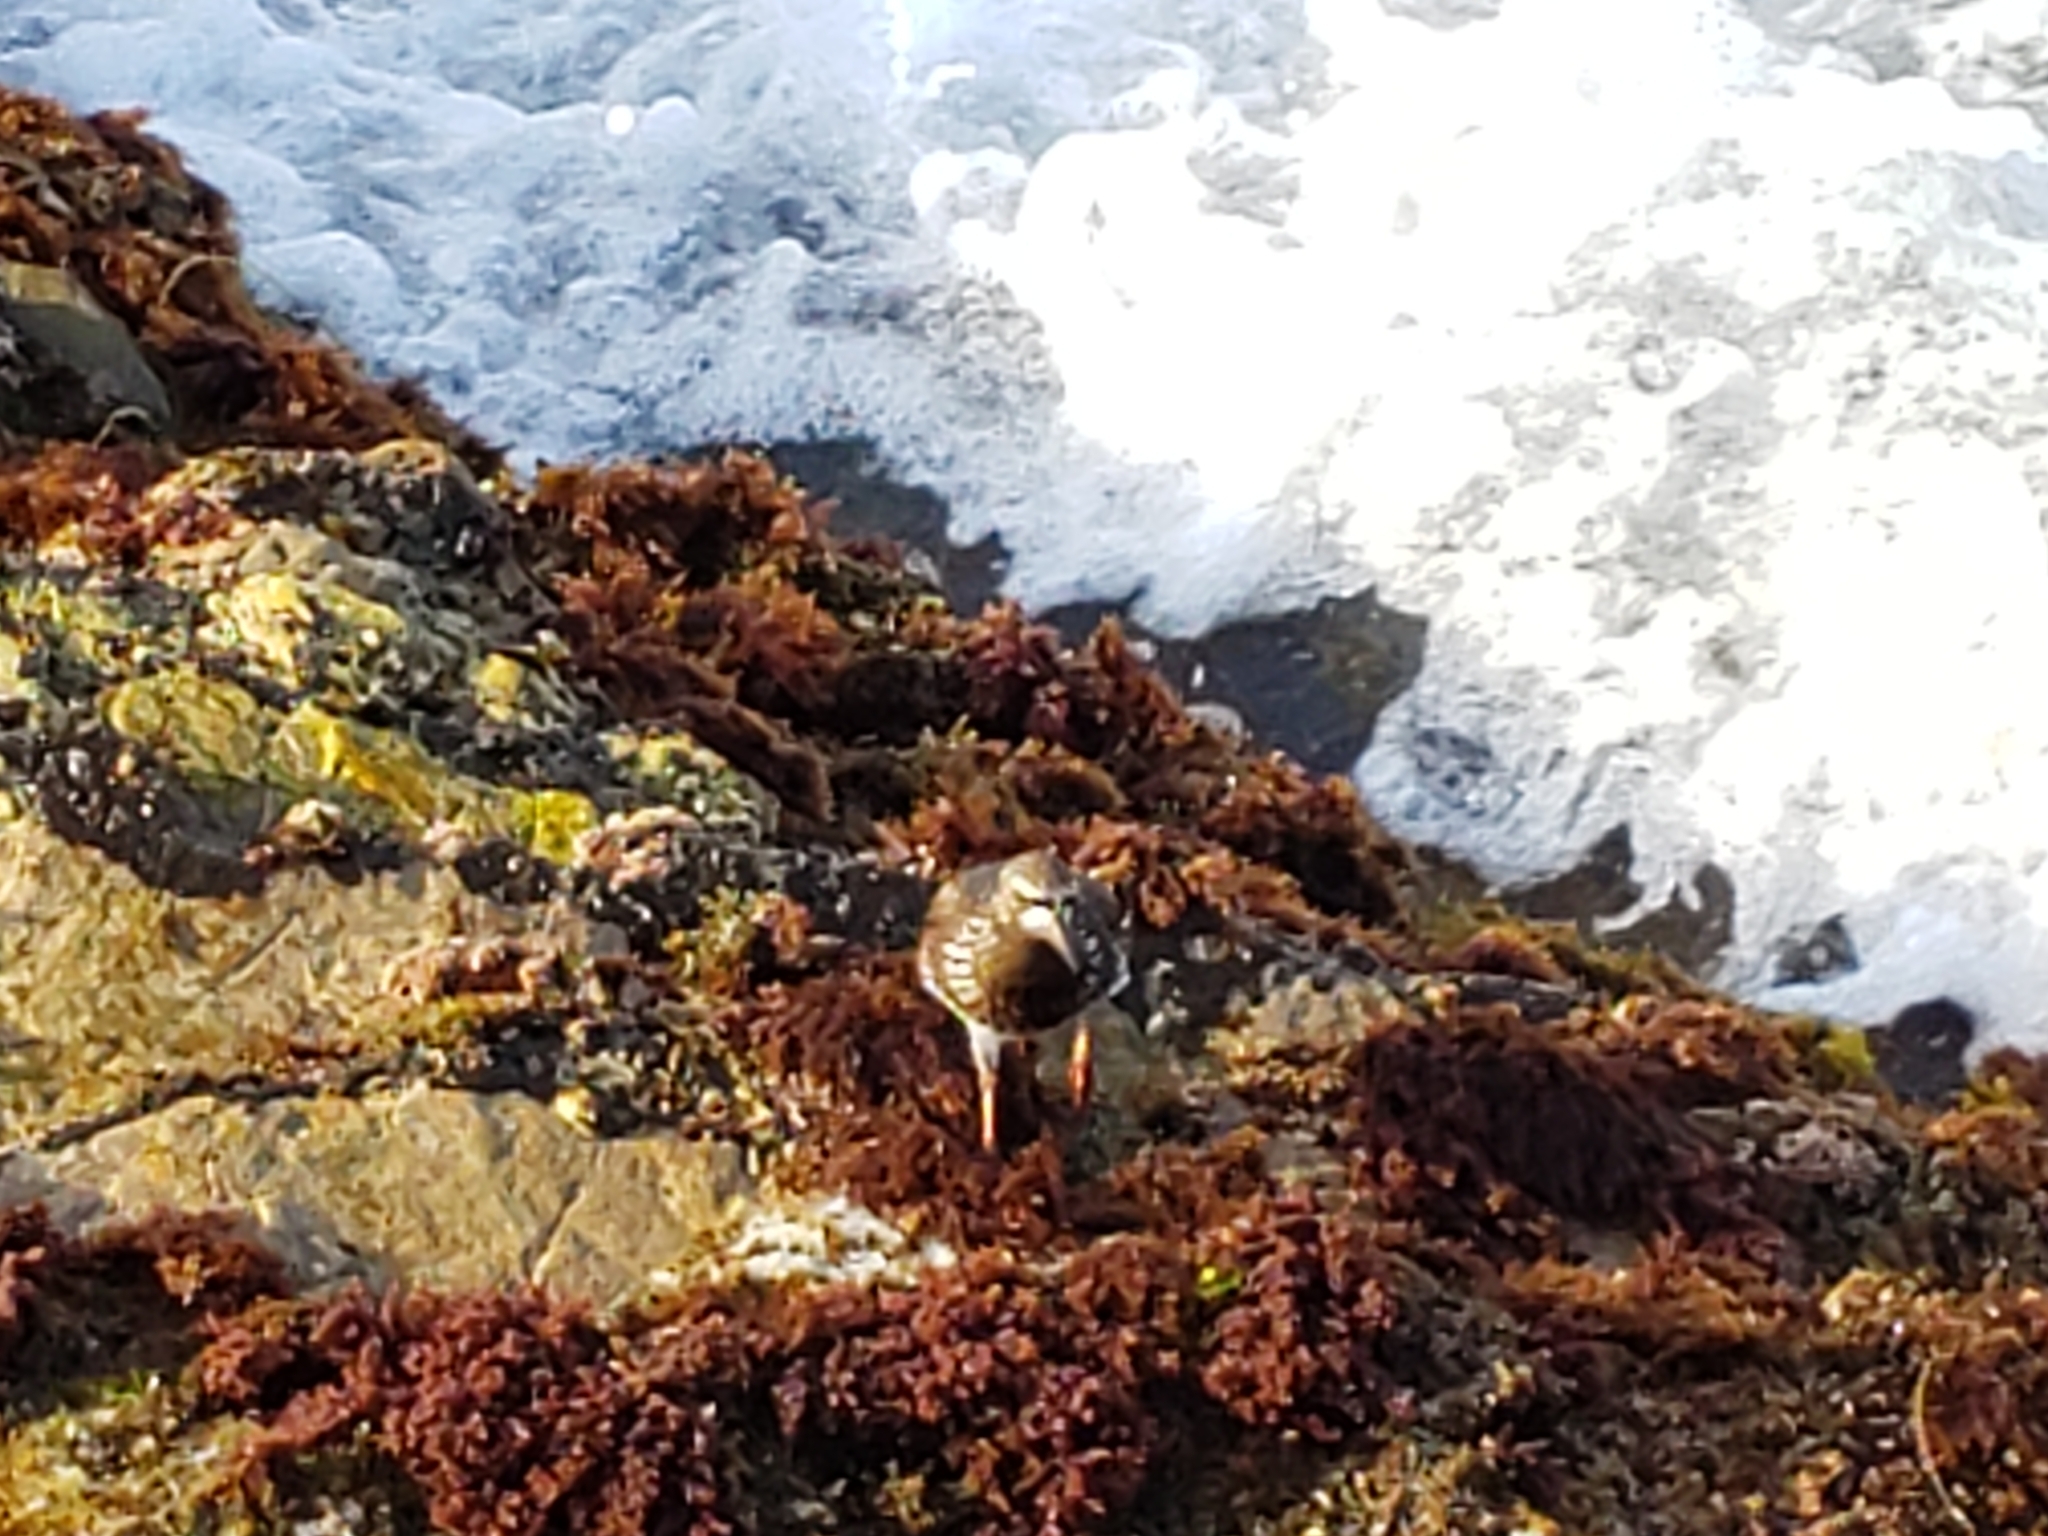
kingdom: Animalia
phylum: Chordata
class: Aves
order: Charadriiformes
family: Scolopacidae
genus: Arenaria
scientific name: Arenaria interpres
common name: Ruddy turnstone
